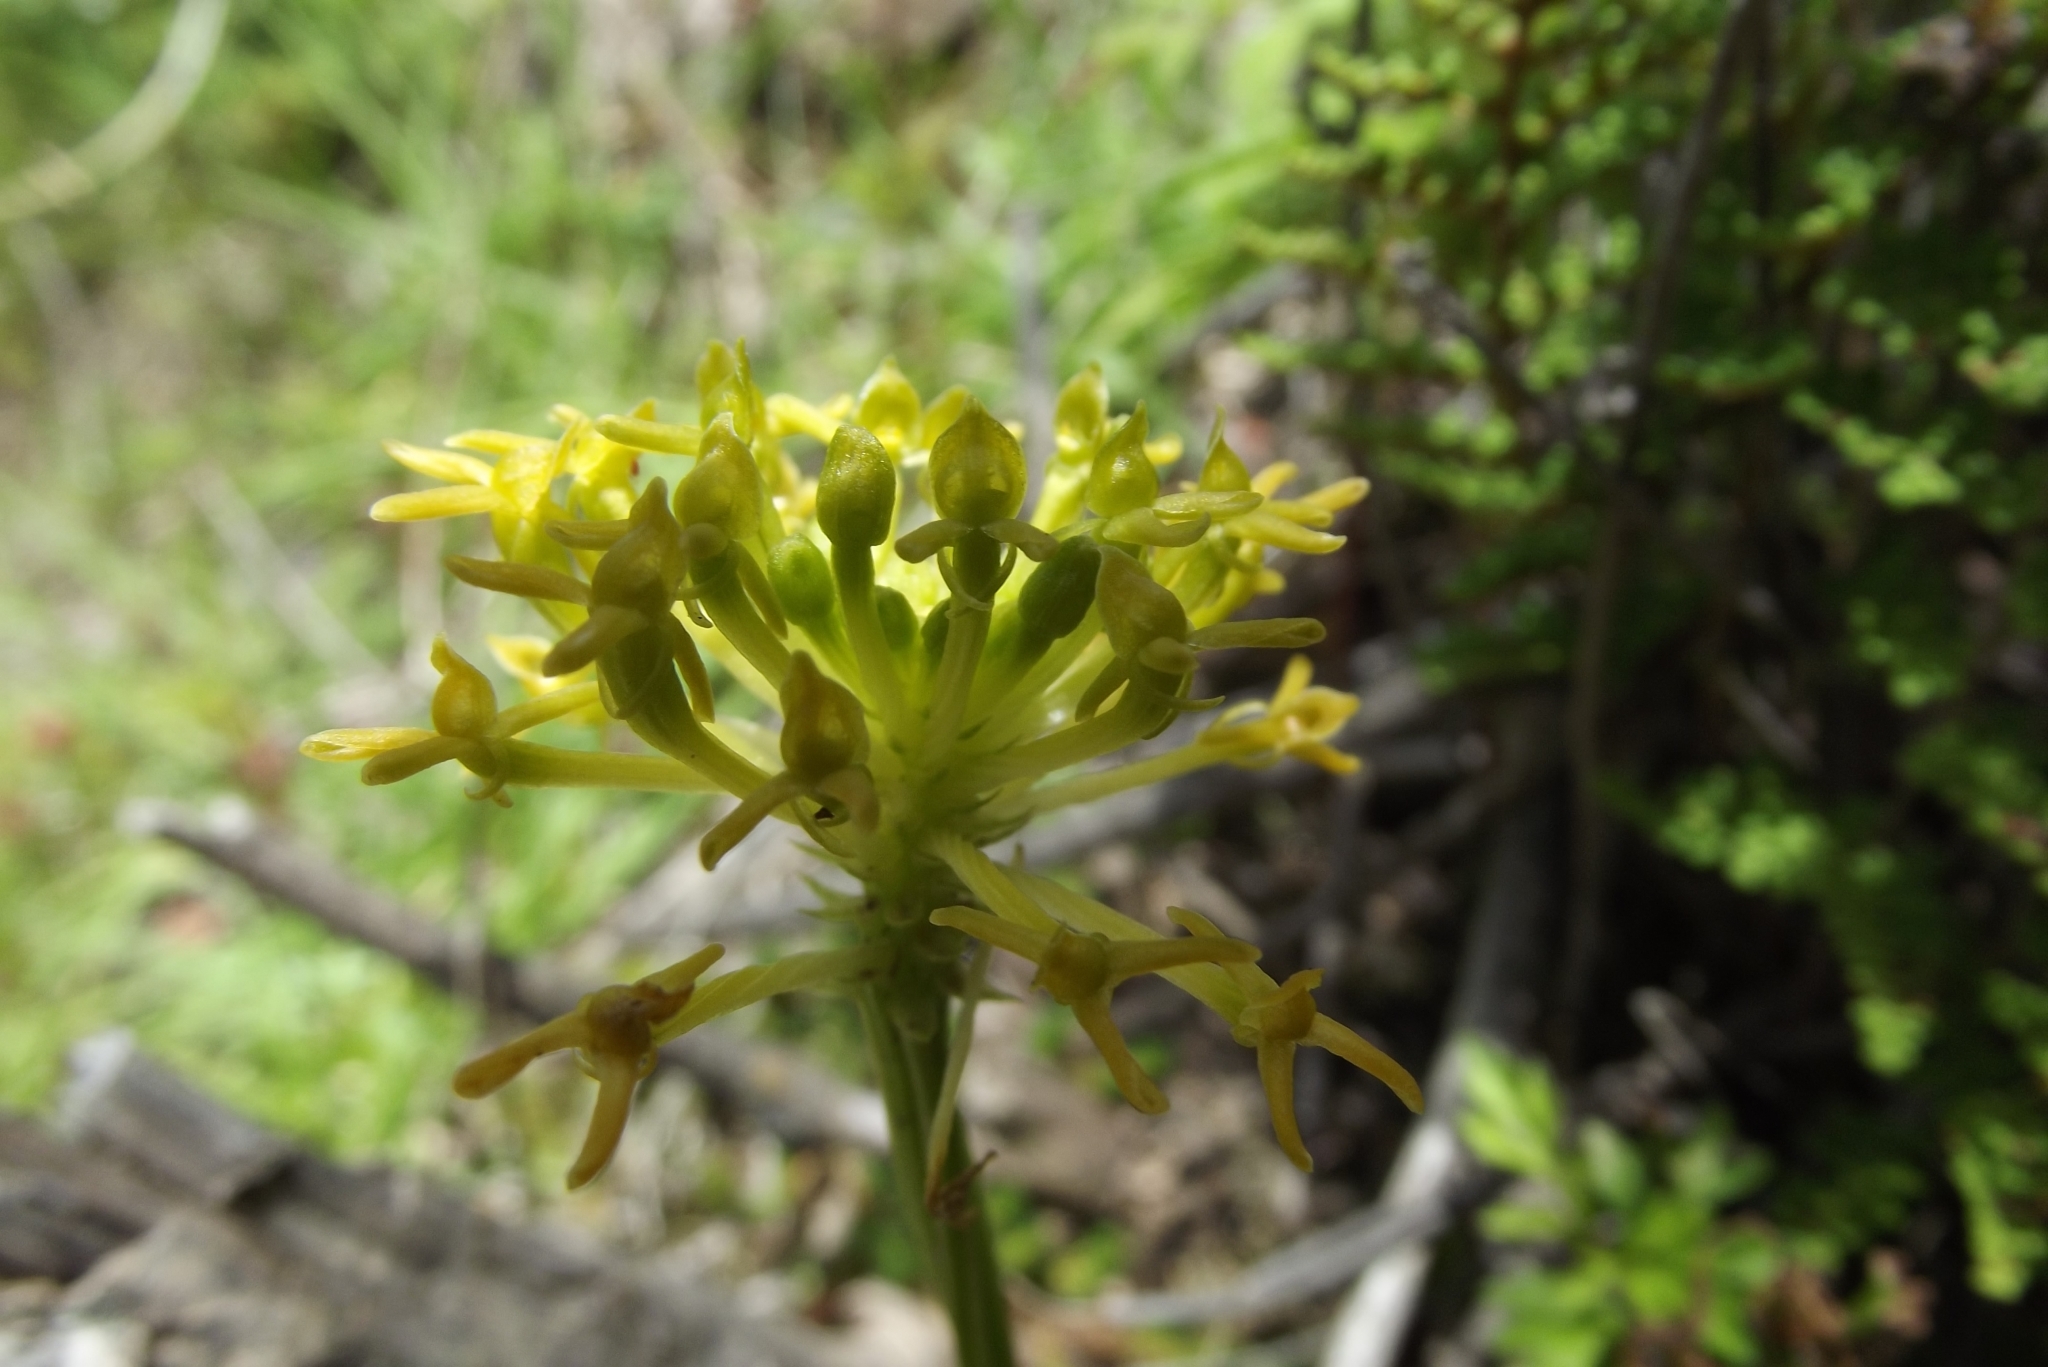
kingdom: Plantae
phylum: Tracheophyta
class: Liliopsida
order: Asparagales
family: Orchidaceae
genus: Malaxis
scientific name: Malaxis andicola
